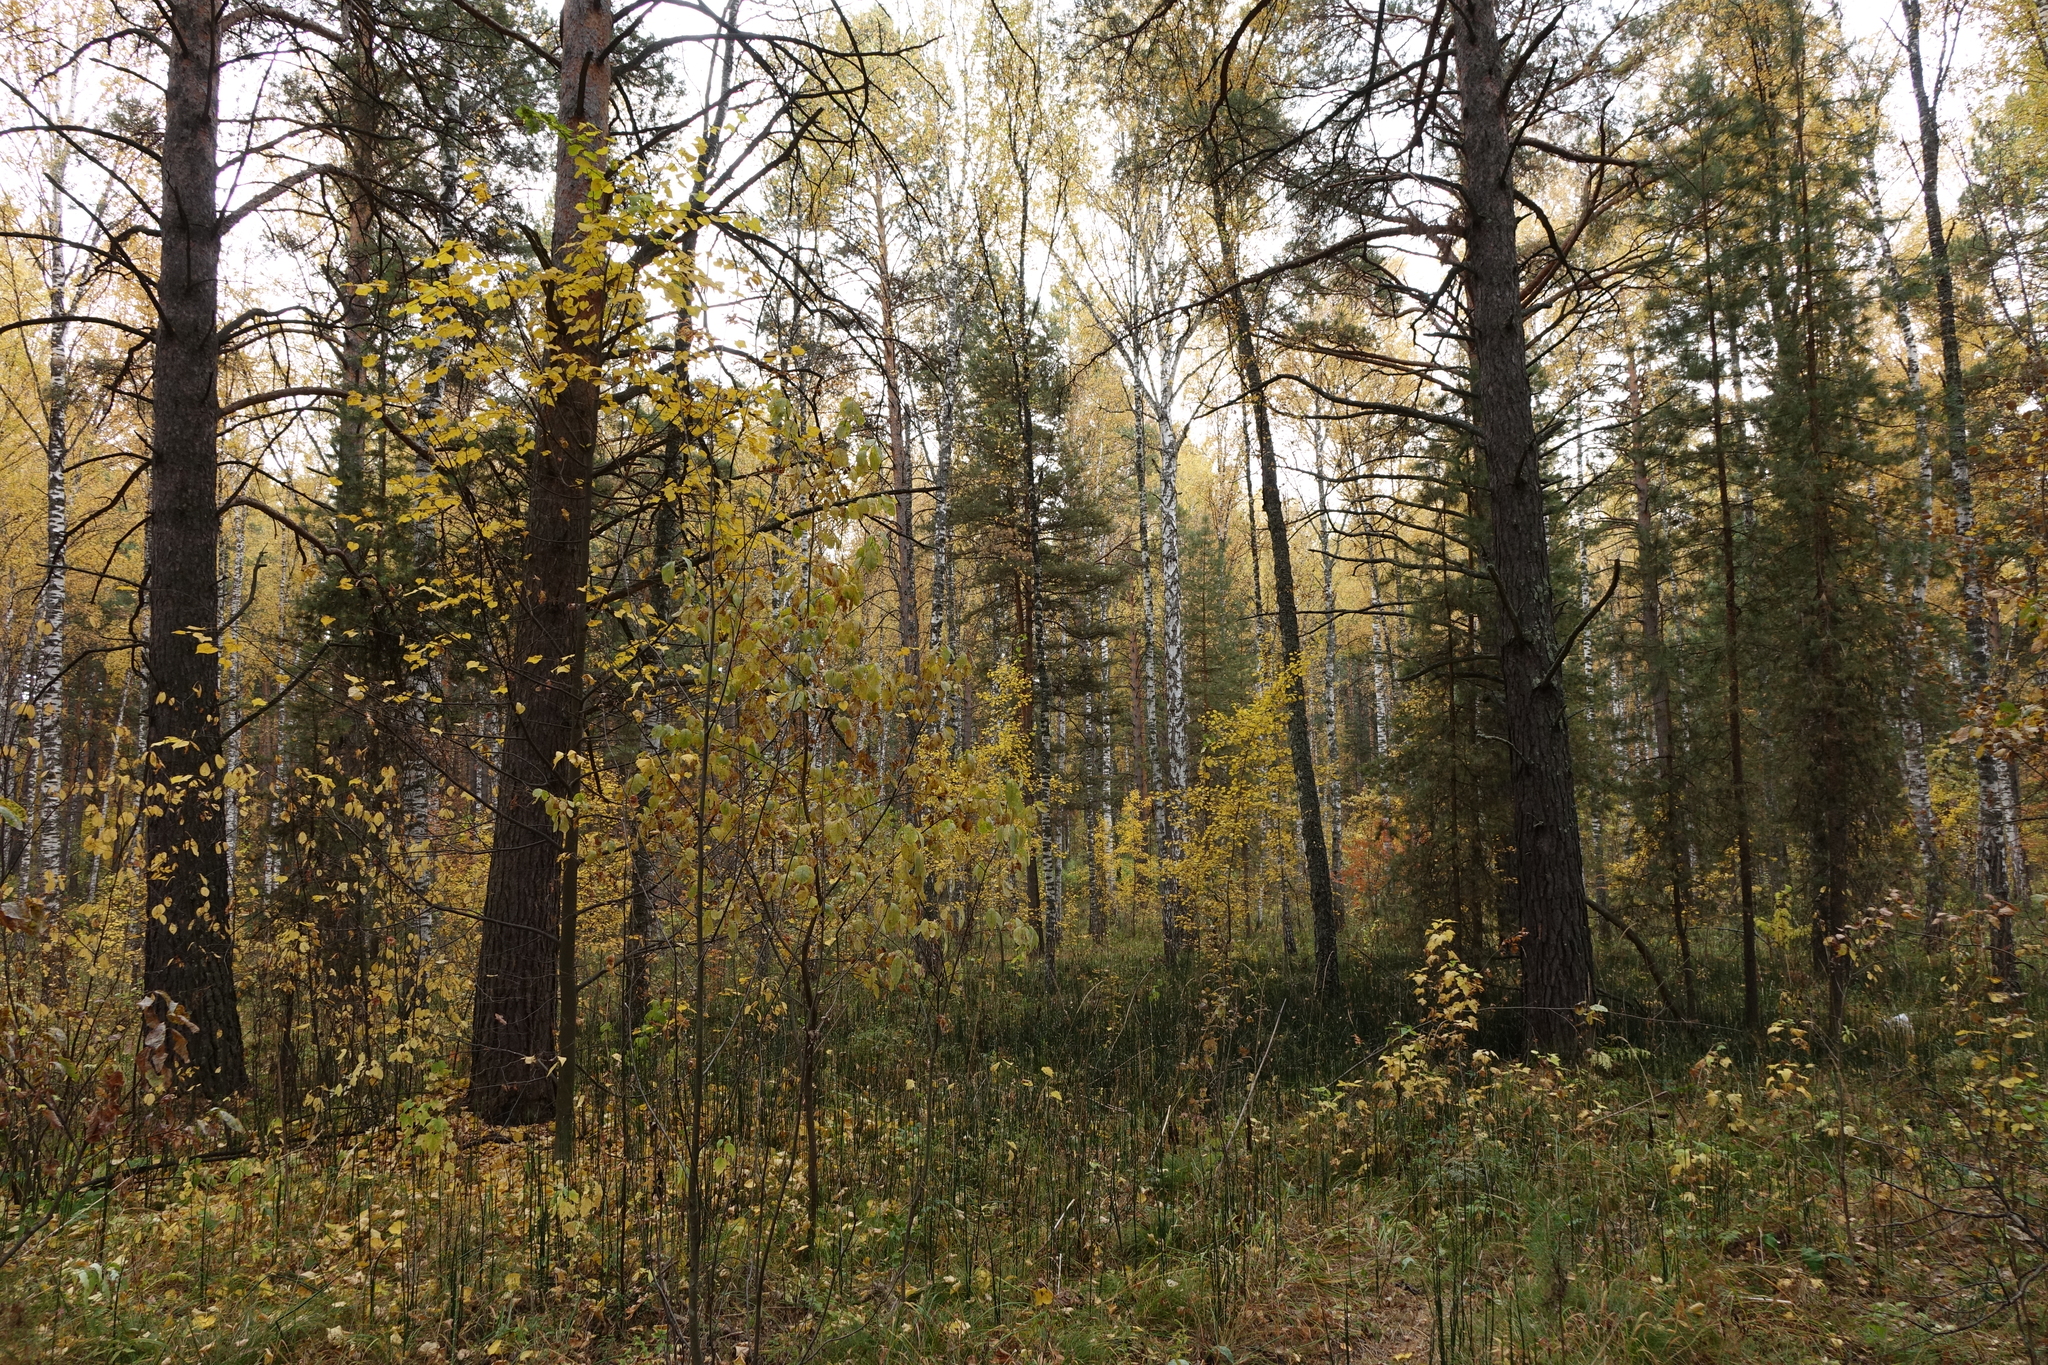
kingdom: Plantae
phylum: Tracheophyta
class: Magnoliopsida
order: Fagales
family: Betulaceae
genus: Betula
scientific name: Betula pendula
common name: Silver birch
